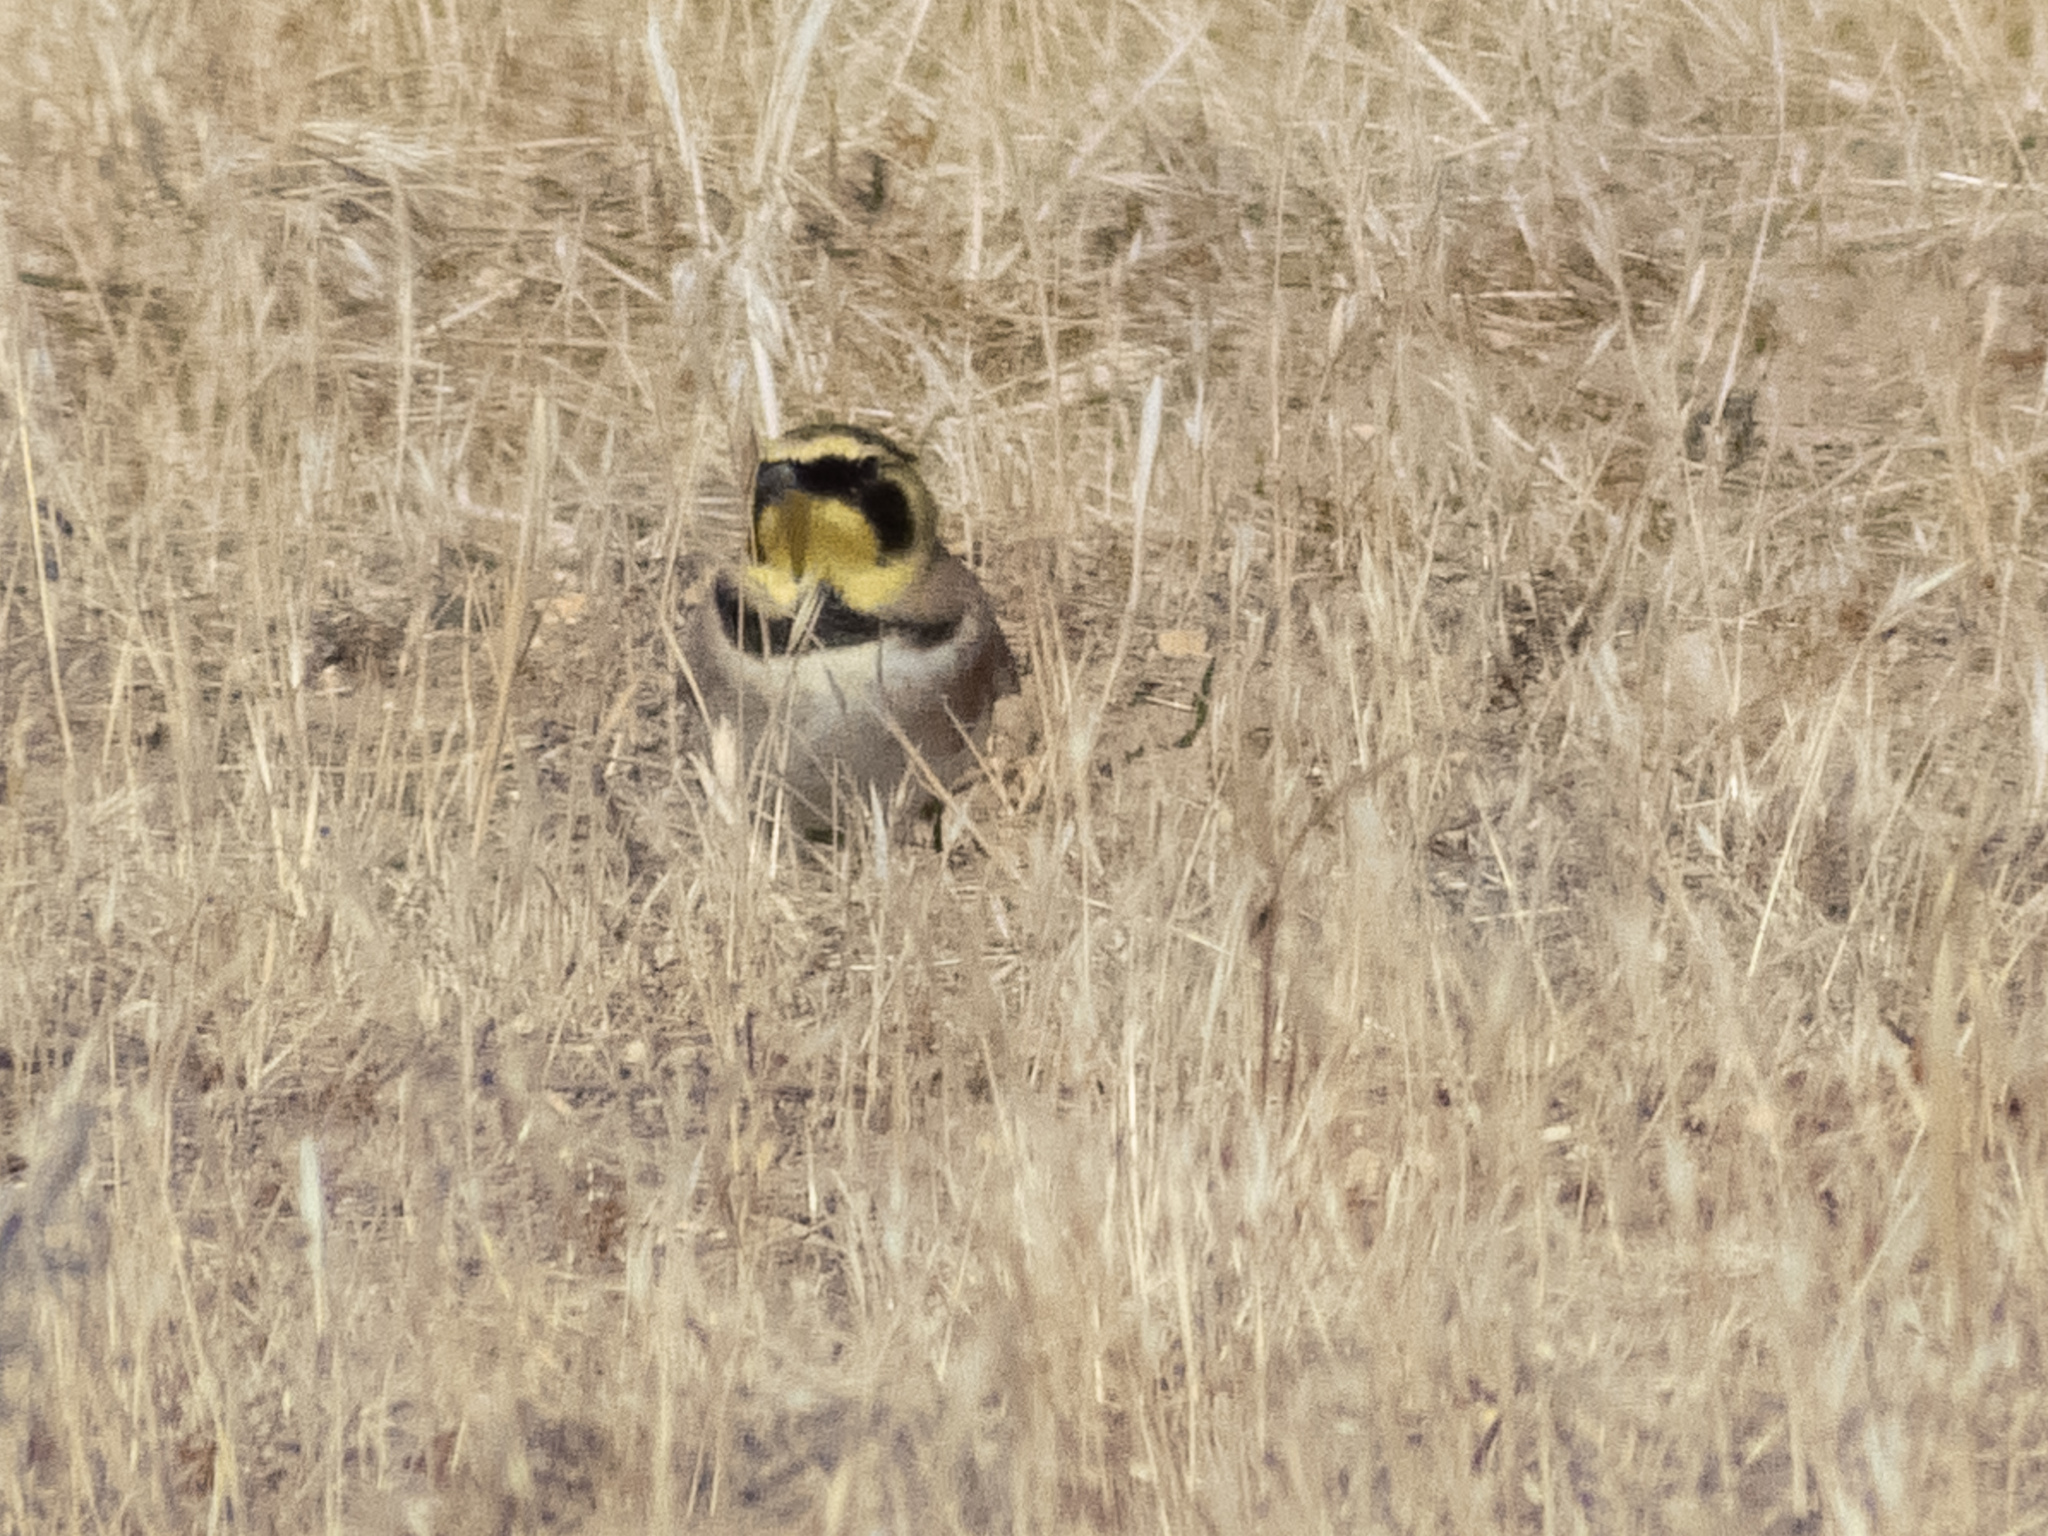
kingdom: Animalia
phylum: Chordata
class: Aves
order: Passeriformes
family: Alaudidae
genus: Eremophila
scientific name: Eremophila alpestris
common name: Horned lark
